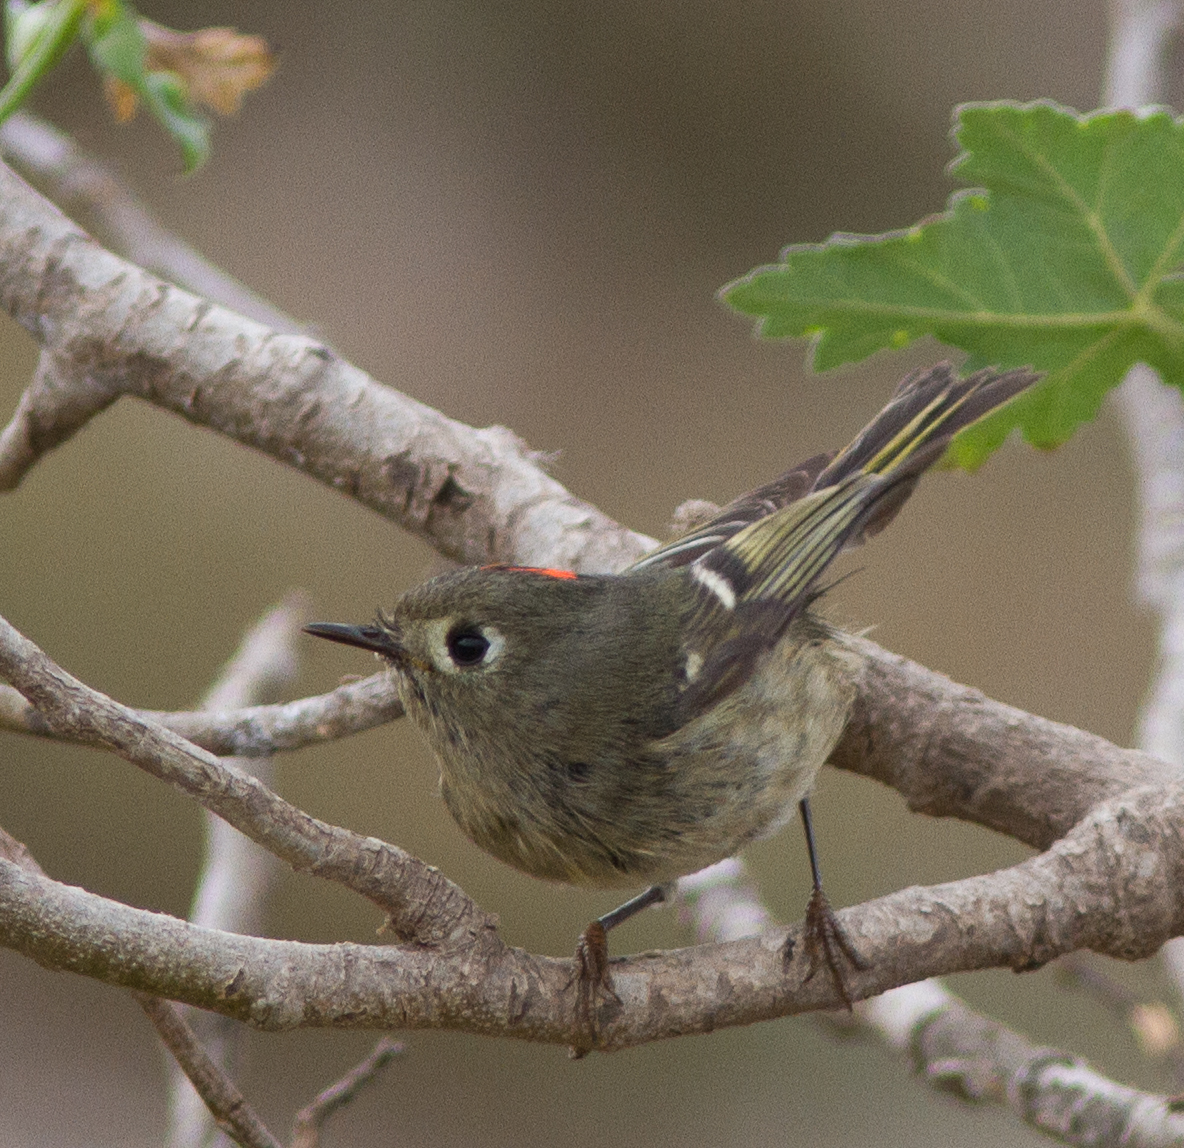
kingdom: Animalia
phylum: Chordata
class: Aves
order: Passeriformes
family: Regulidae
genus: Regulus
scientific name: Regulus calendula
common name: Ruby-crowned kinglet
